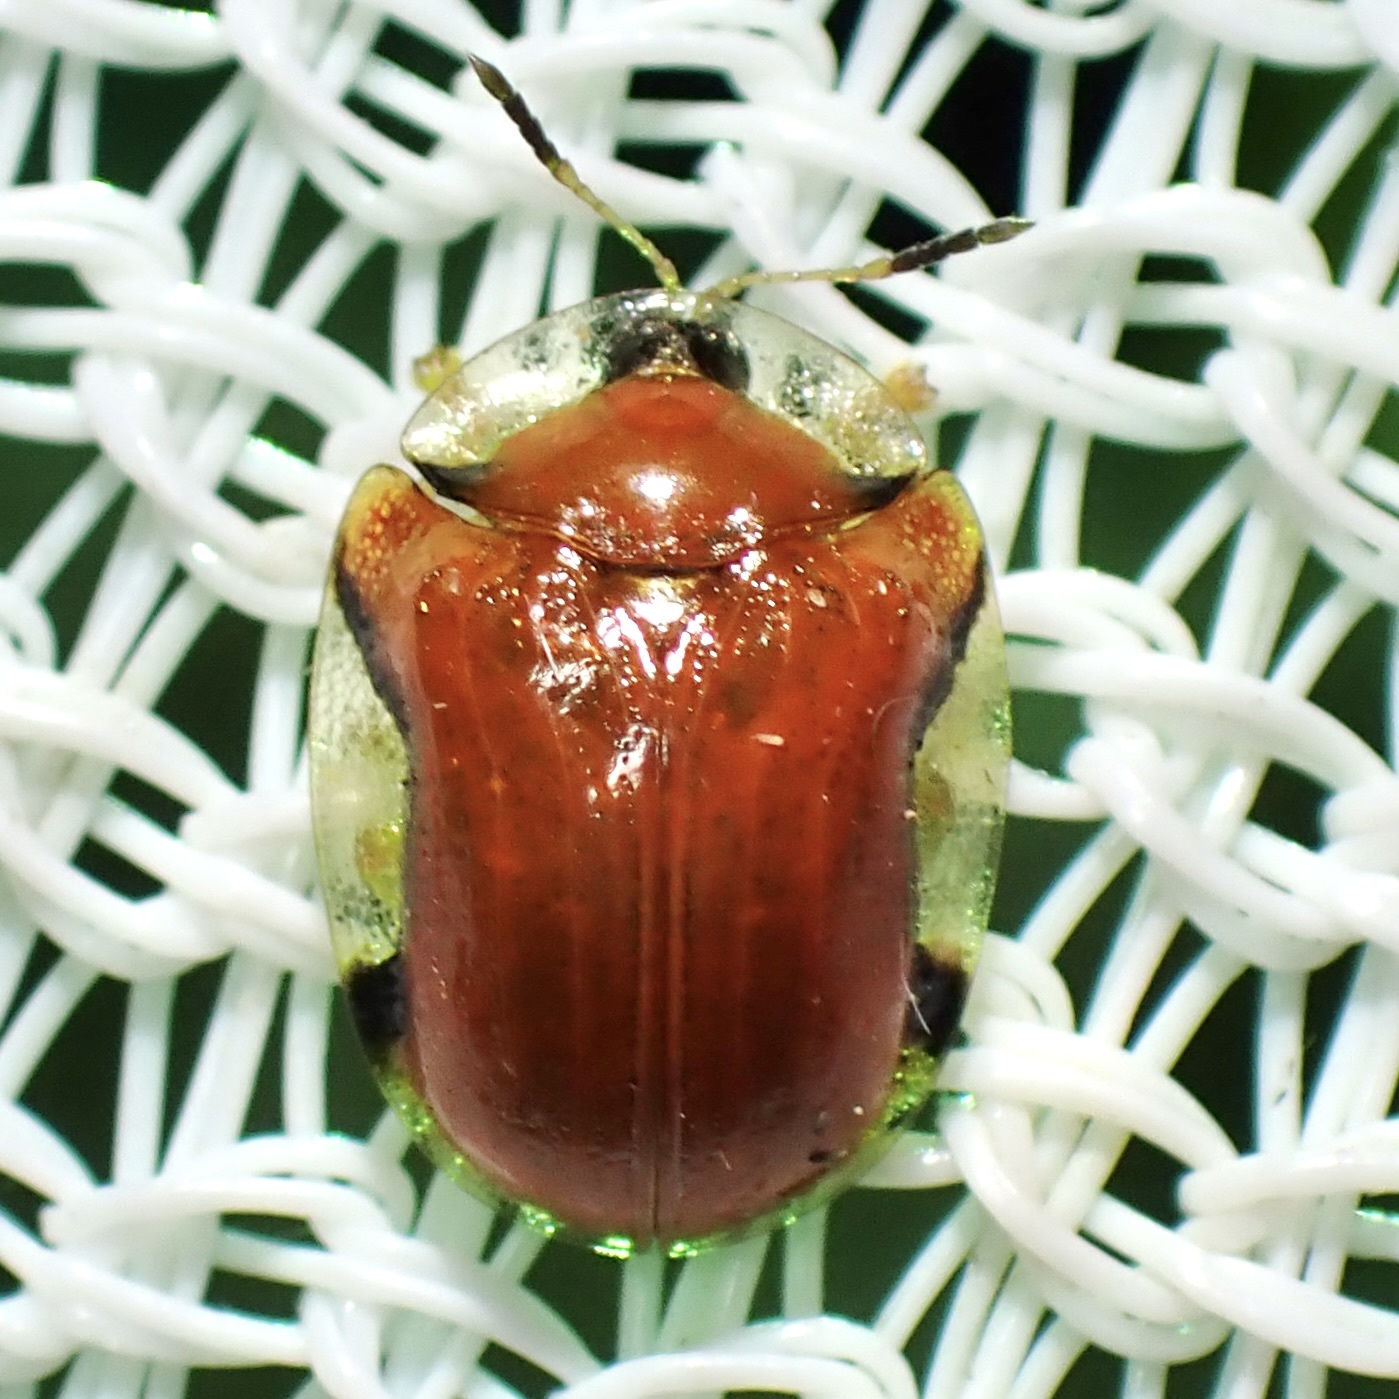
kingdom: Animalia
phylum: Arthropoda
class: Insecta
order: Coleoptera
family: Chrysomelidae
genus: Charidotella
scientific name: Charidotella emarginata
